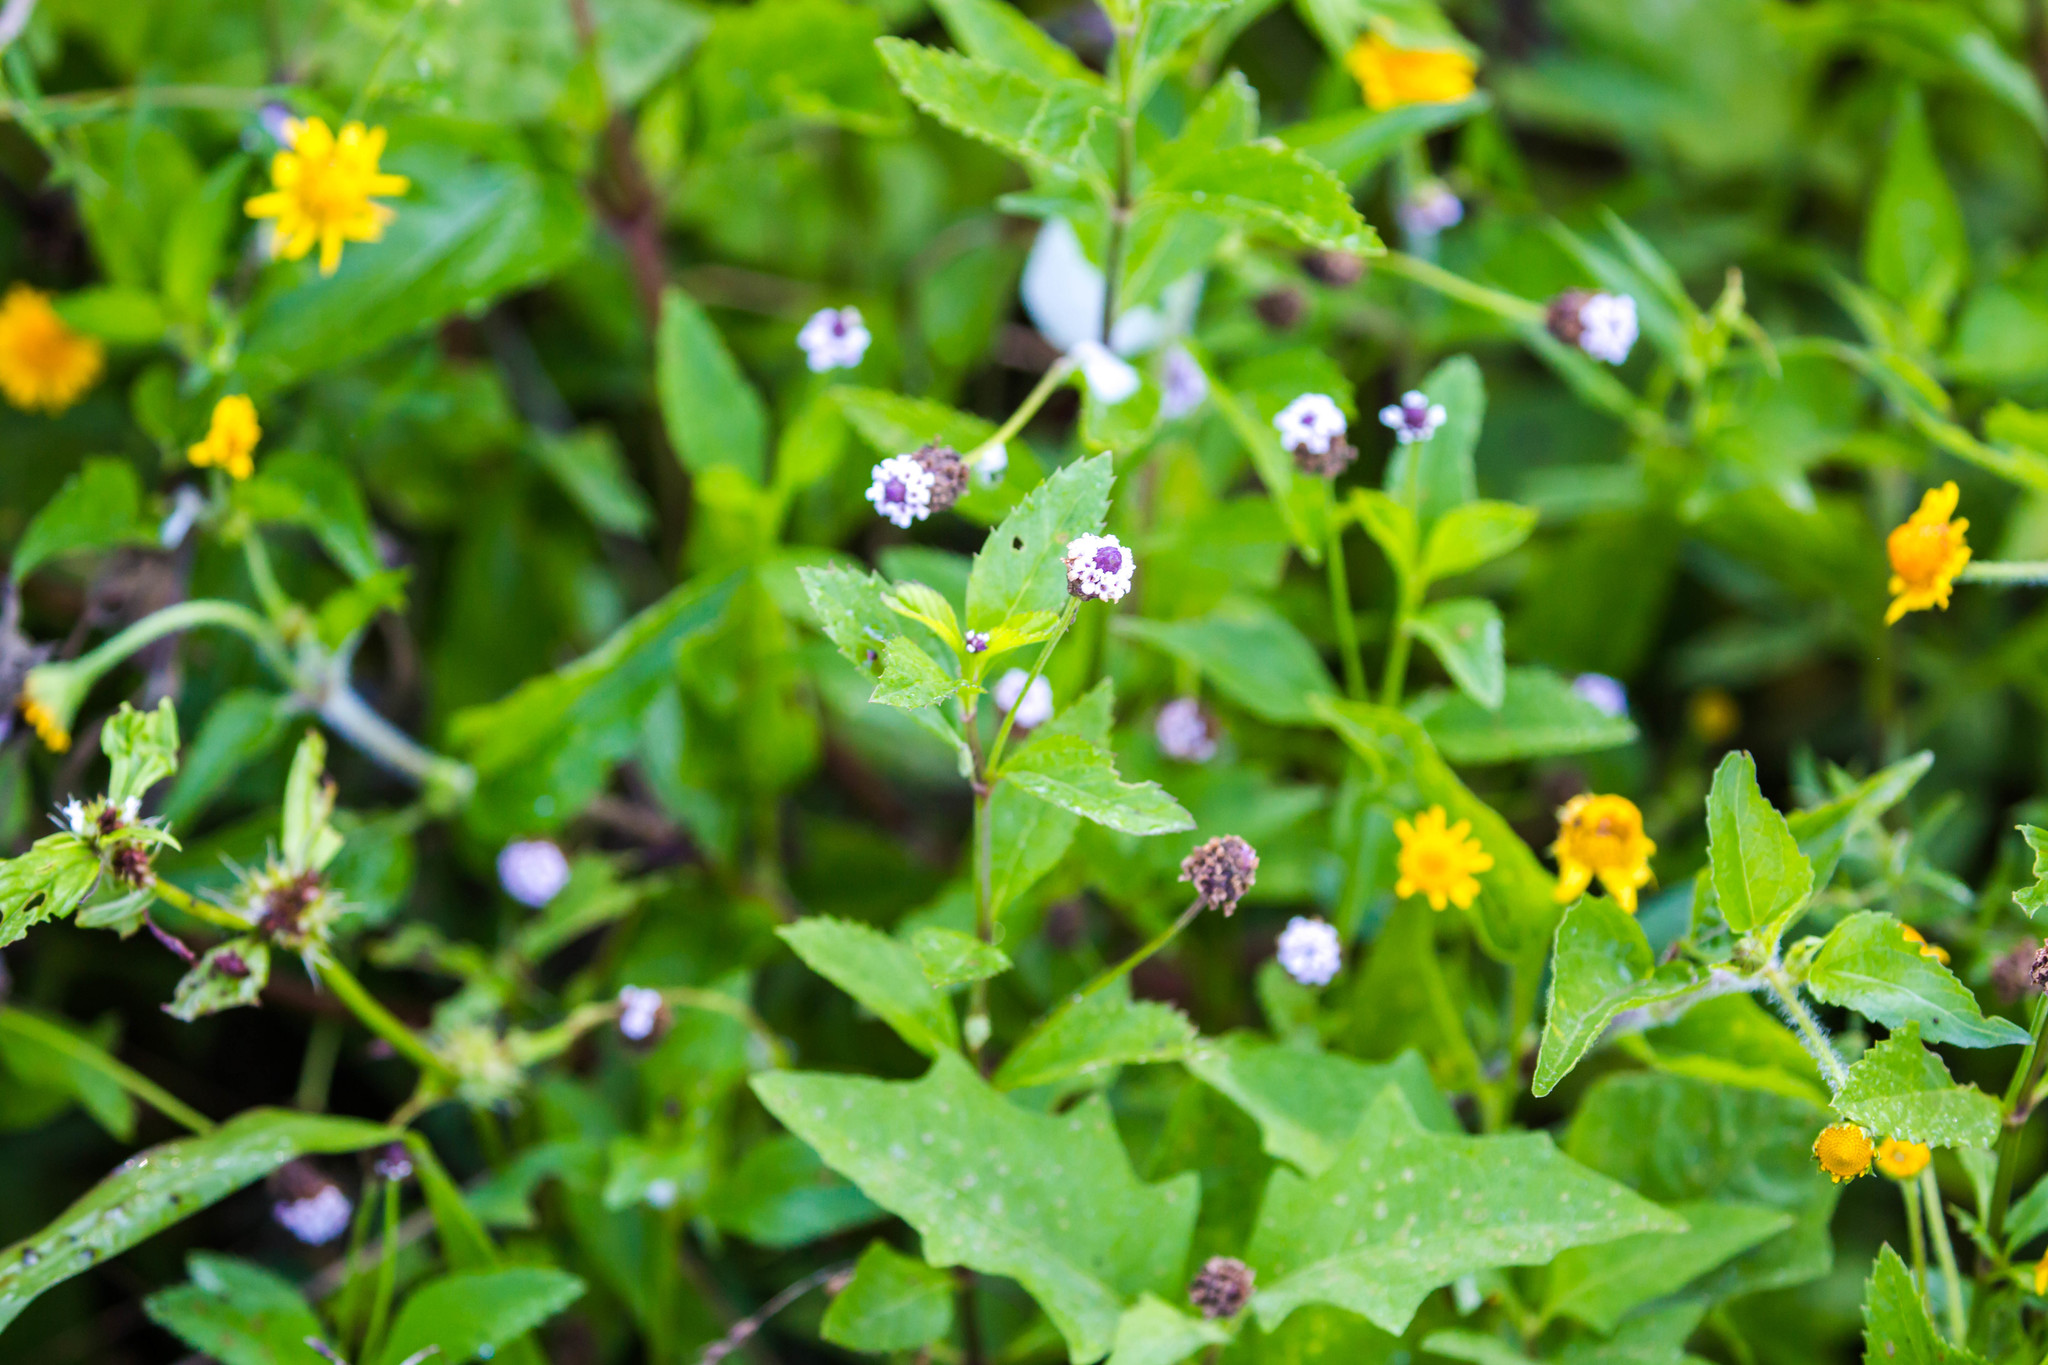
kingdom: Plantae
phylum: Tracheophyta
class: Magnoliopsida
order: Lamiales
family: Verbenaceae
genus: Phyla
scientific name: Phyla lanceolata
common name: Northern fogfruit
